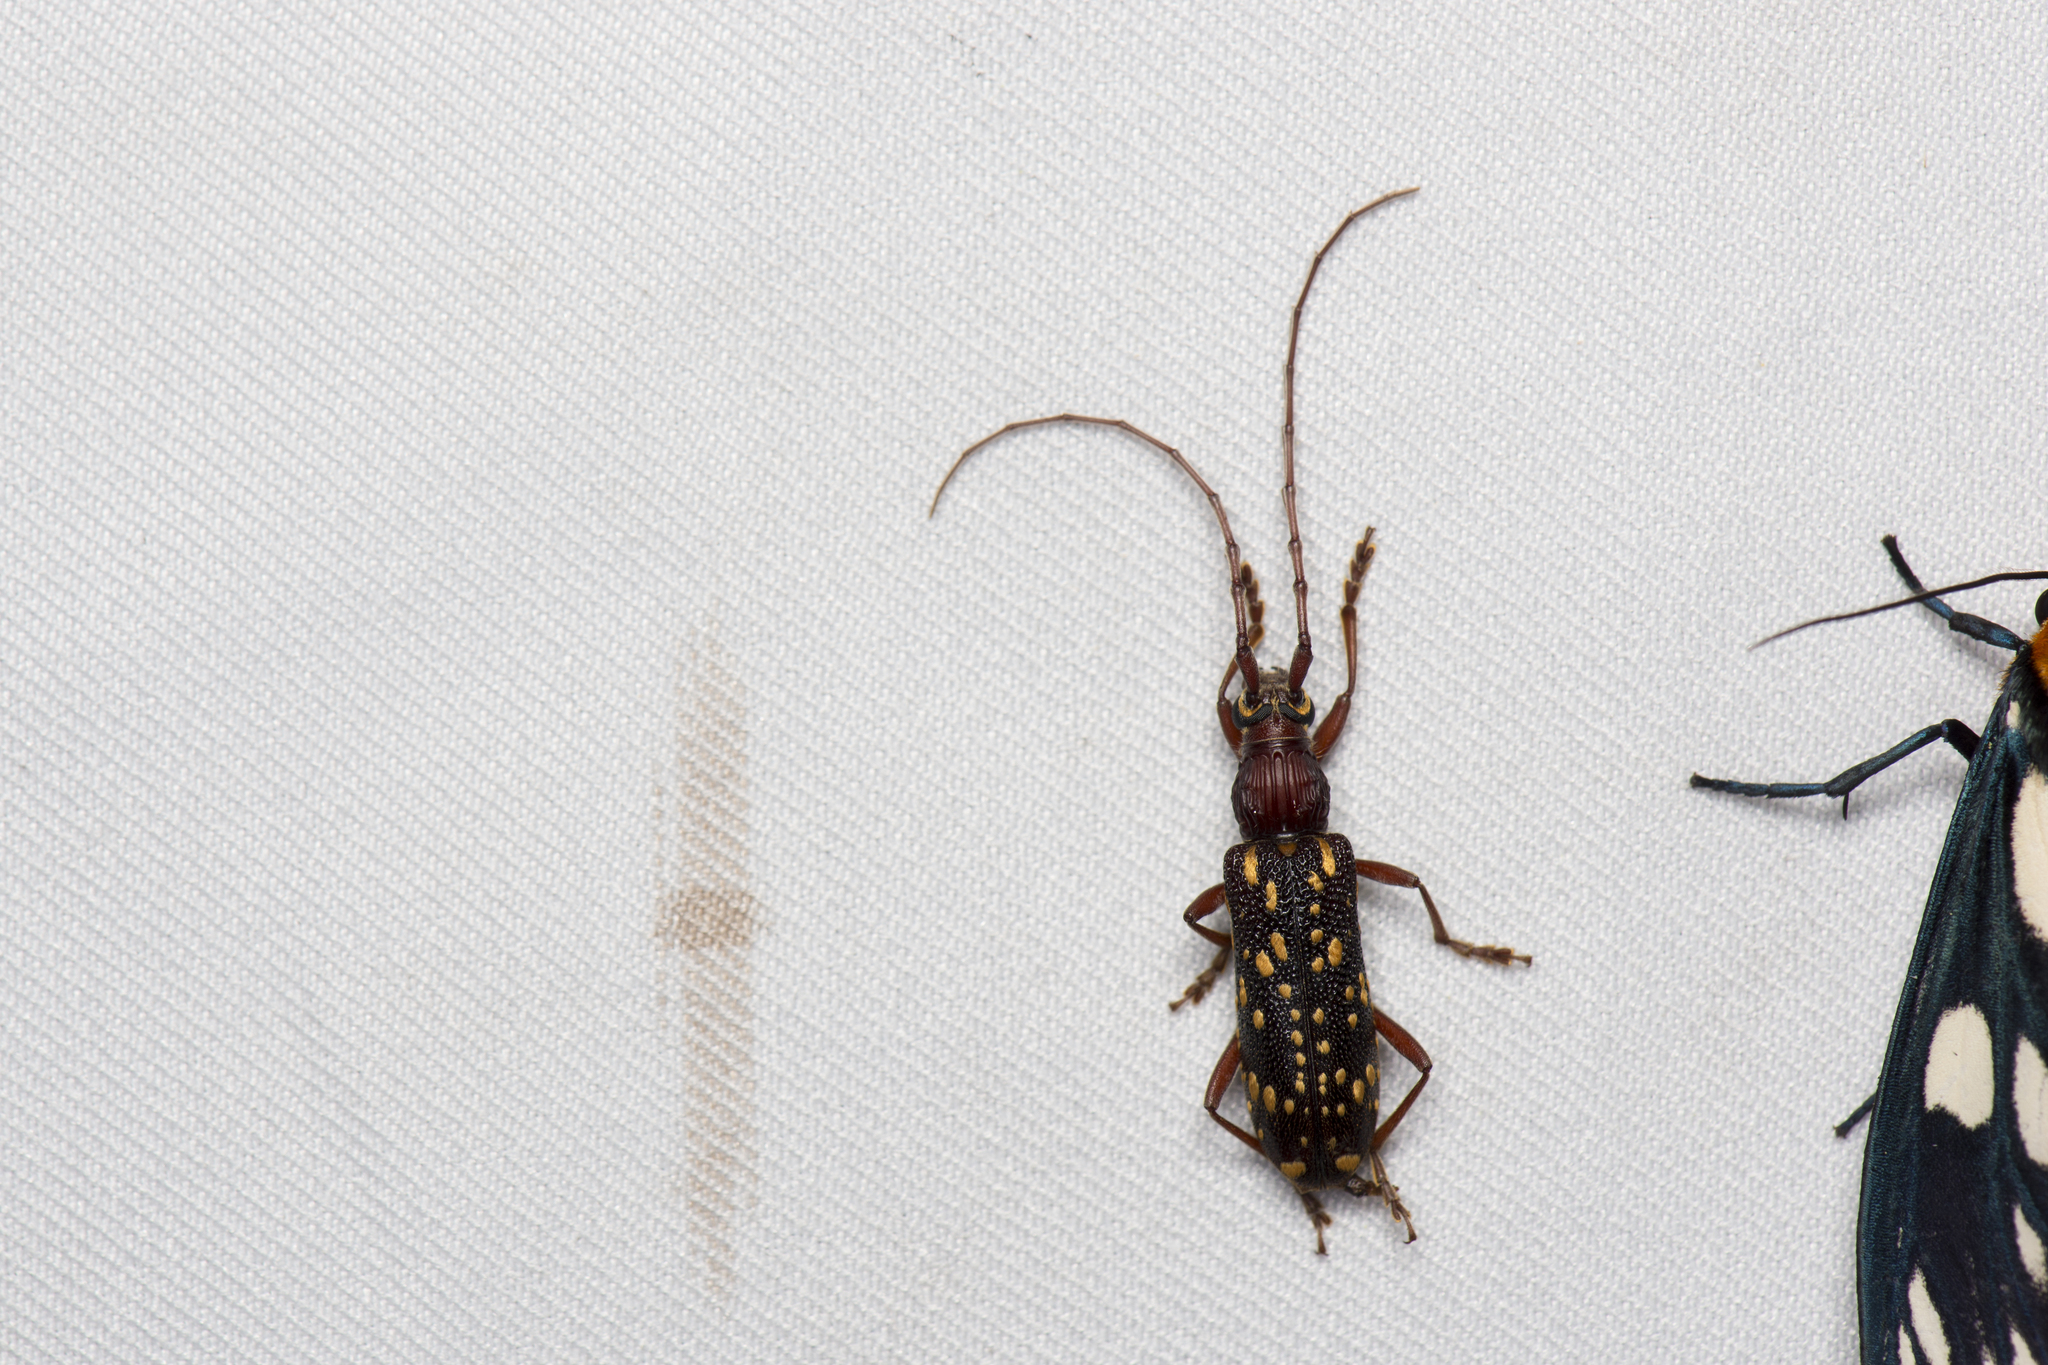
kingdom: Animalia
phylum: Arthropoda
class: Insecta
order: Coleoptera
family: Cerambycidae
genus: Xoanodera
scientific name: Xoanodera maculata
